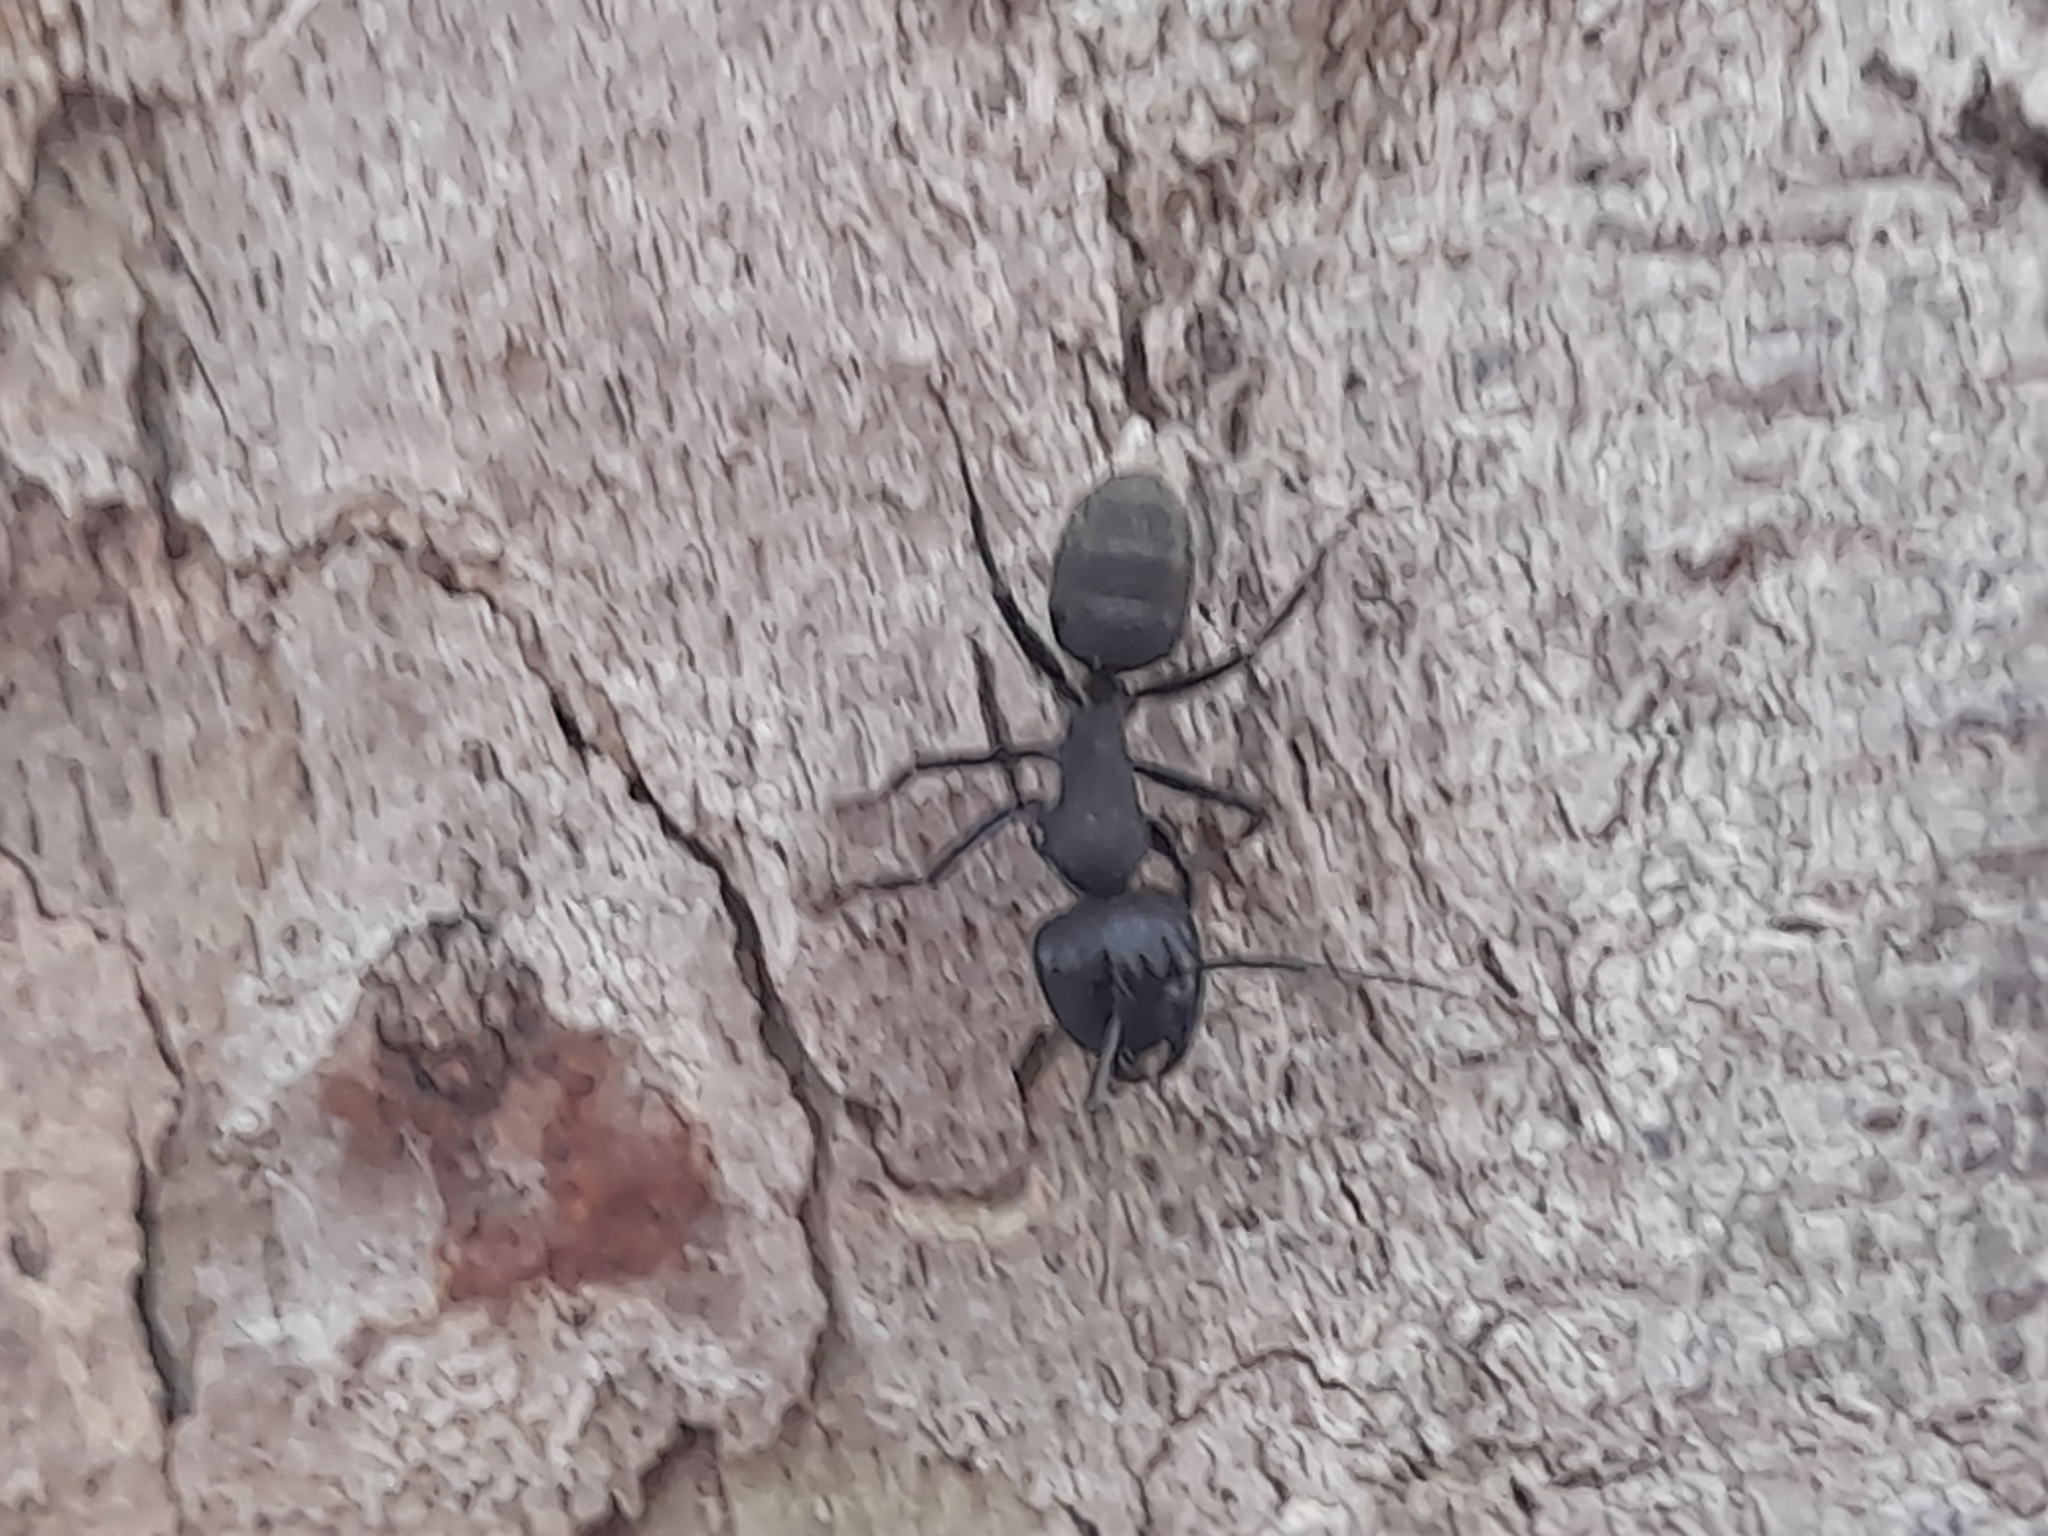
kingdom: Animalia
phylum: Arthropoda
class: Insecta
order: Hymenoptera
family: Formicidae
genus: Camponotus
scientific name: Camponotus vagus
